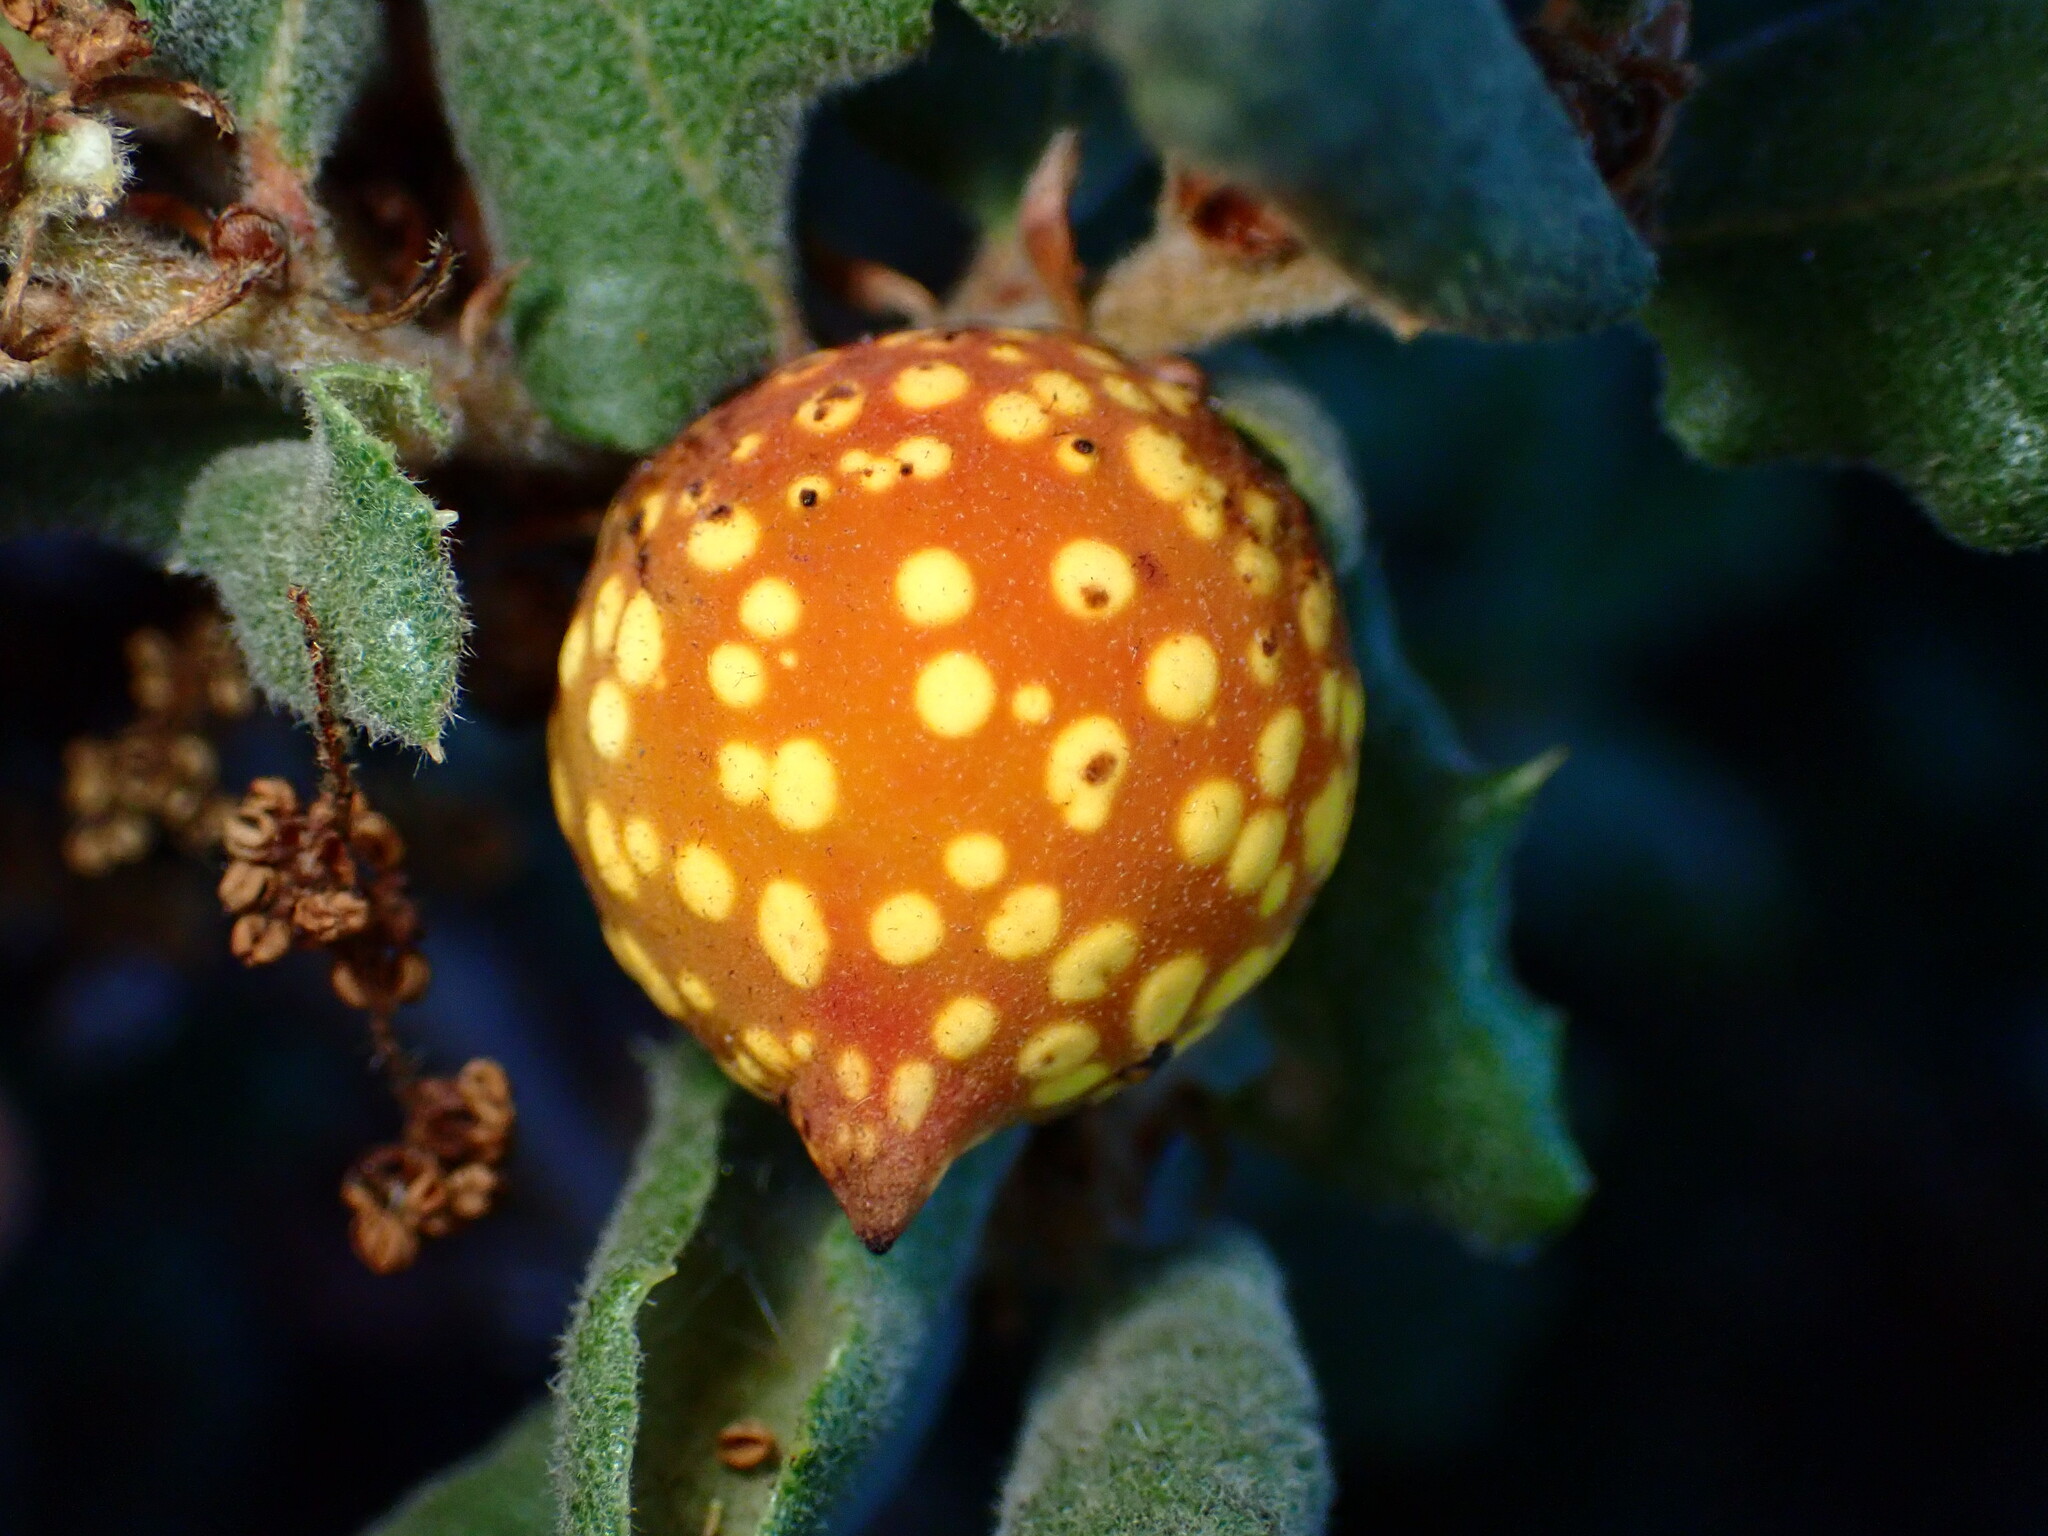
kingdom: Animalia
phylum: Arthropoda
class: Insecta
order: Hymenoptera
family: Cynipidae
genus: Burnettweldia
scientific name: Burnettweldia
